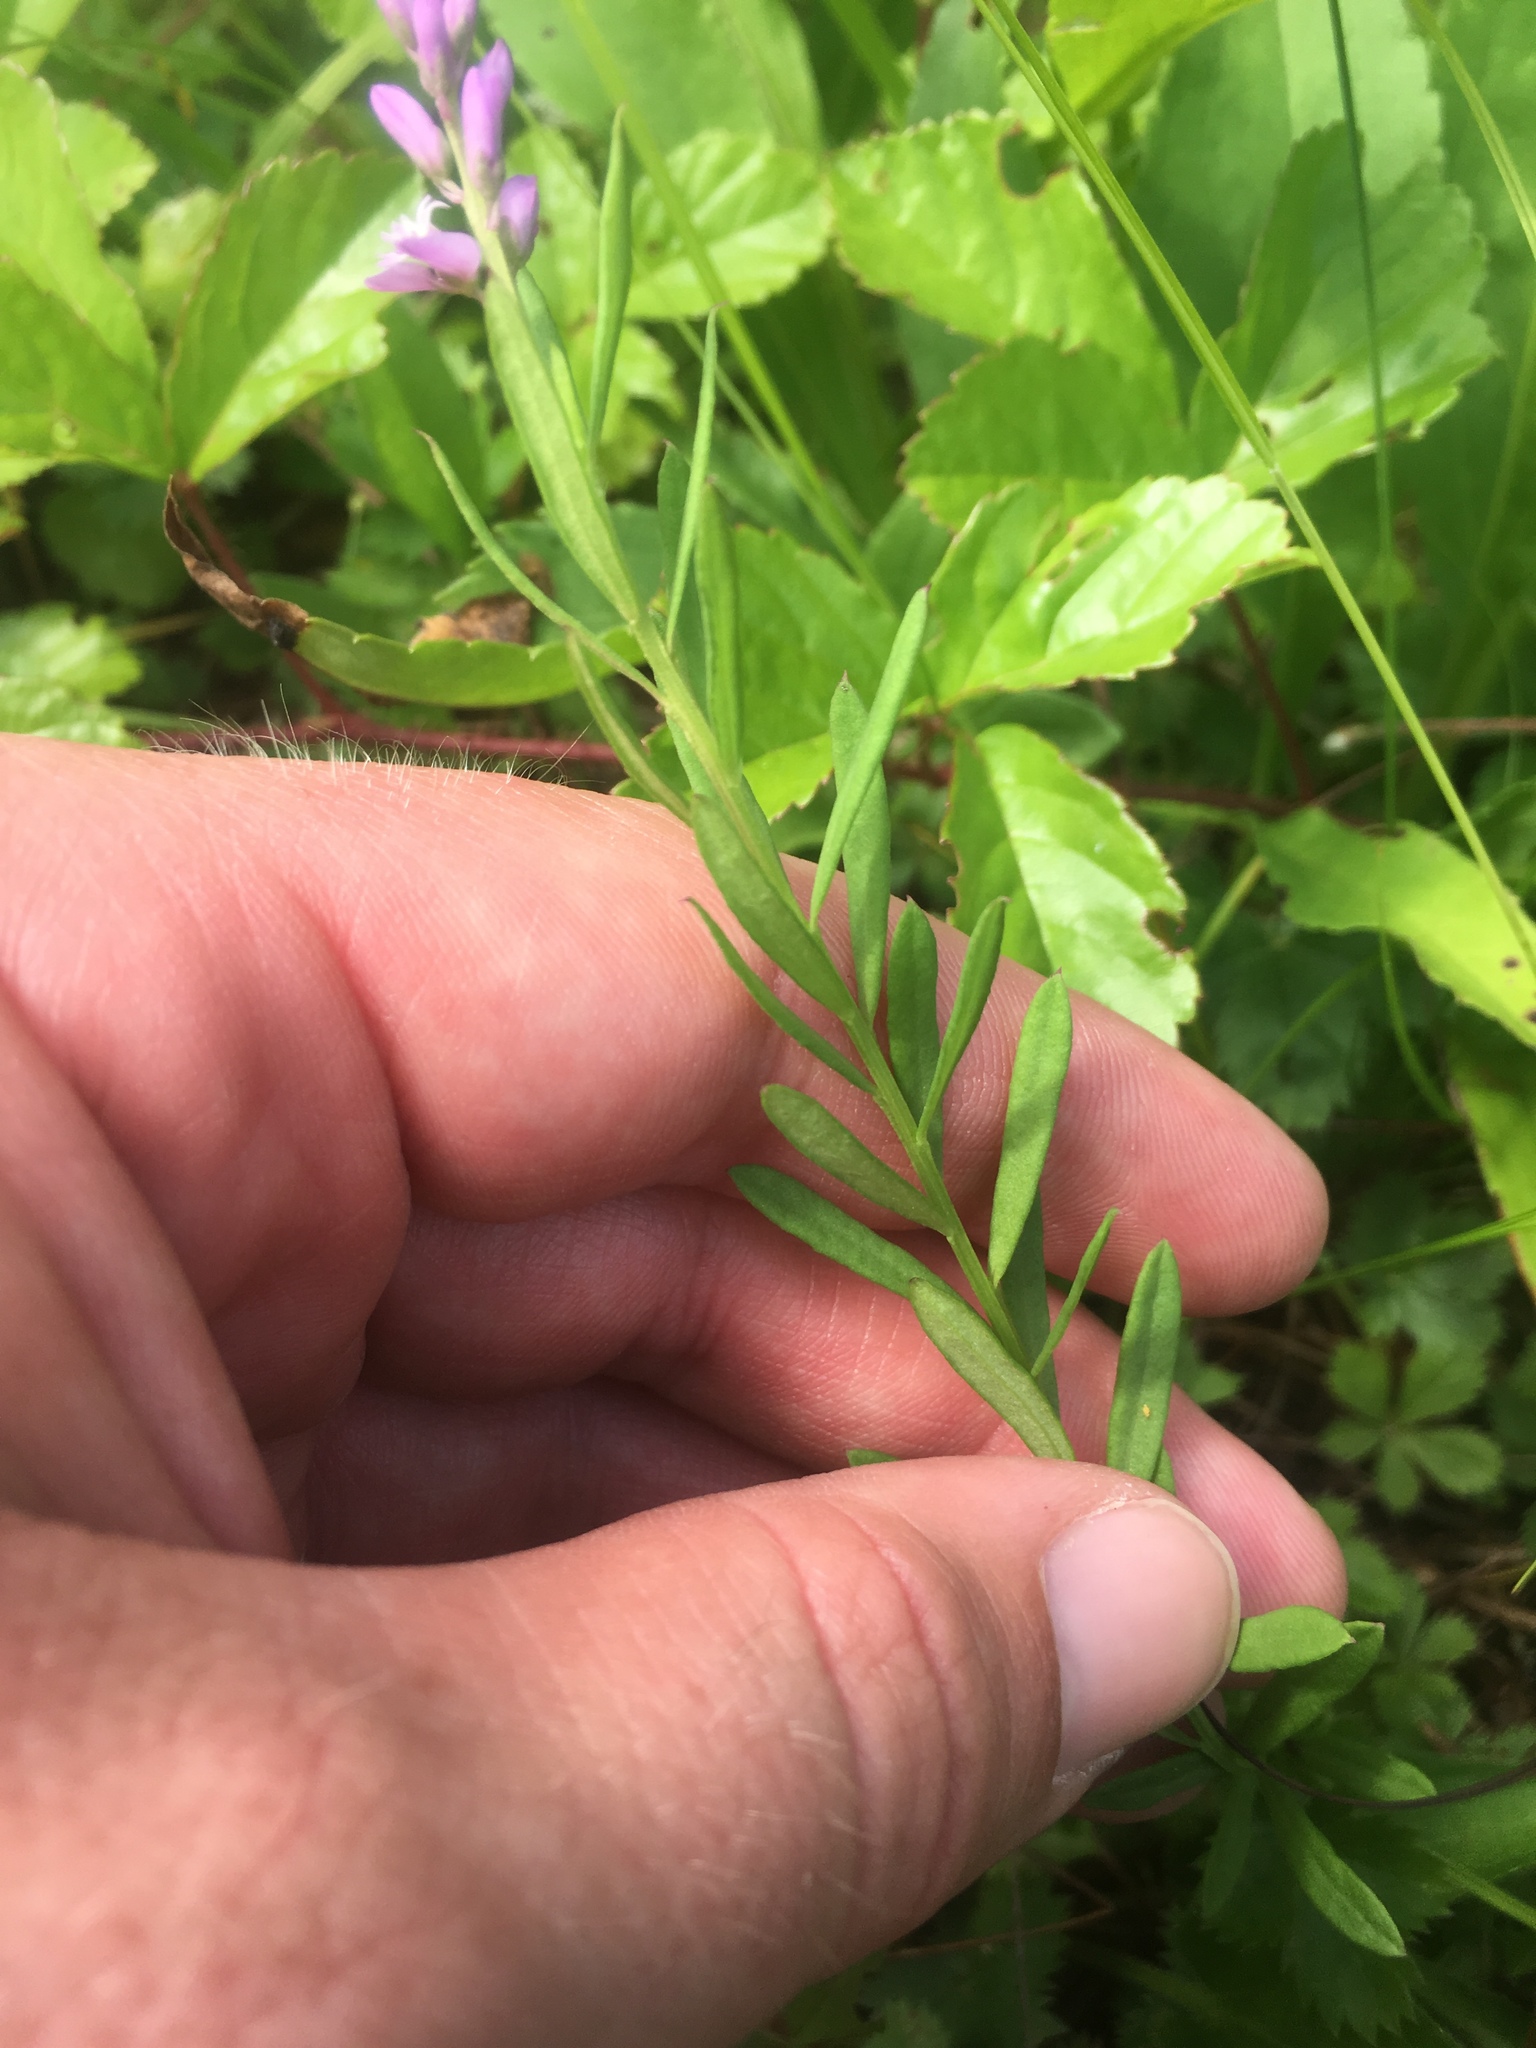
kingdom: Plantae
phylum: Tracheophyta
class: Magnoliopsida
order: Fabales
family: Polygalaceae
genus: Polygala
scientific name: Polygala polygama
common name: Bitter milkwort
